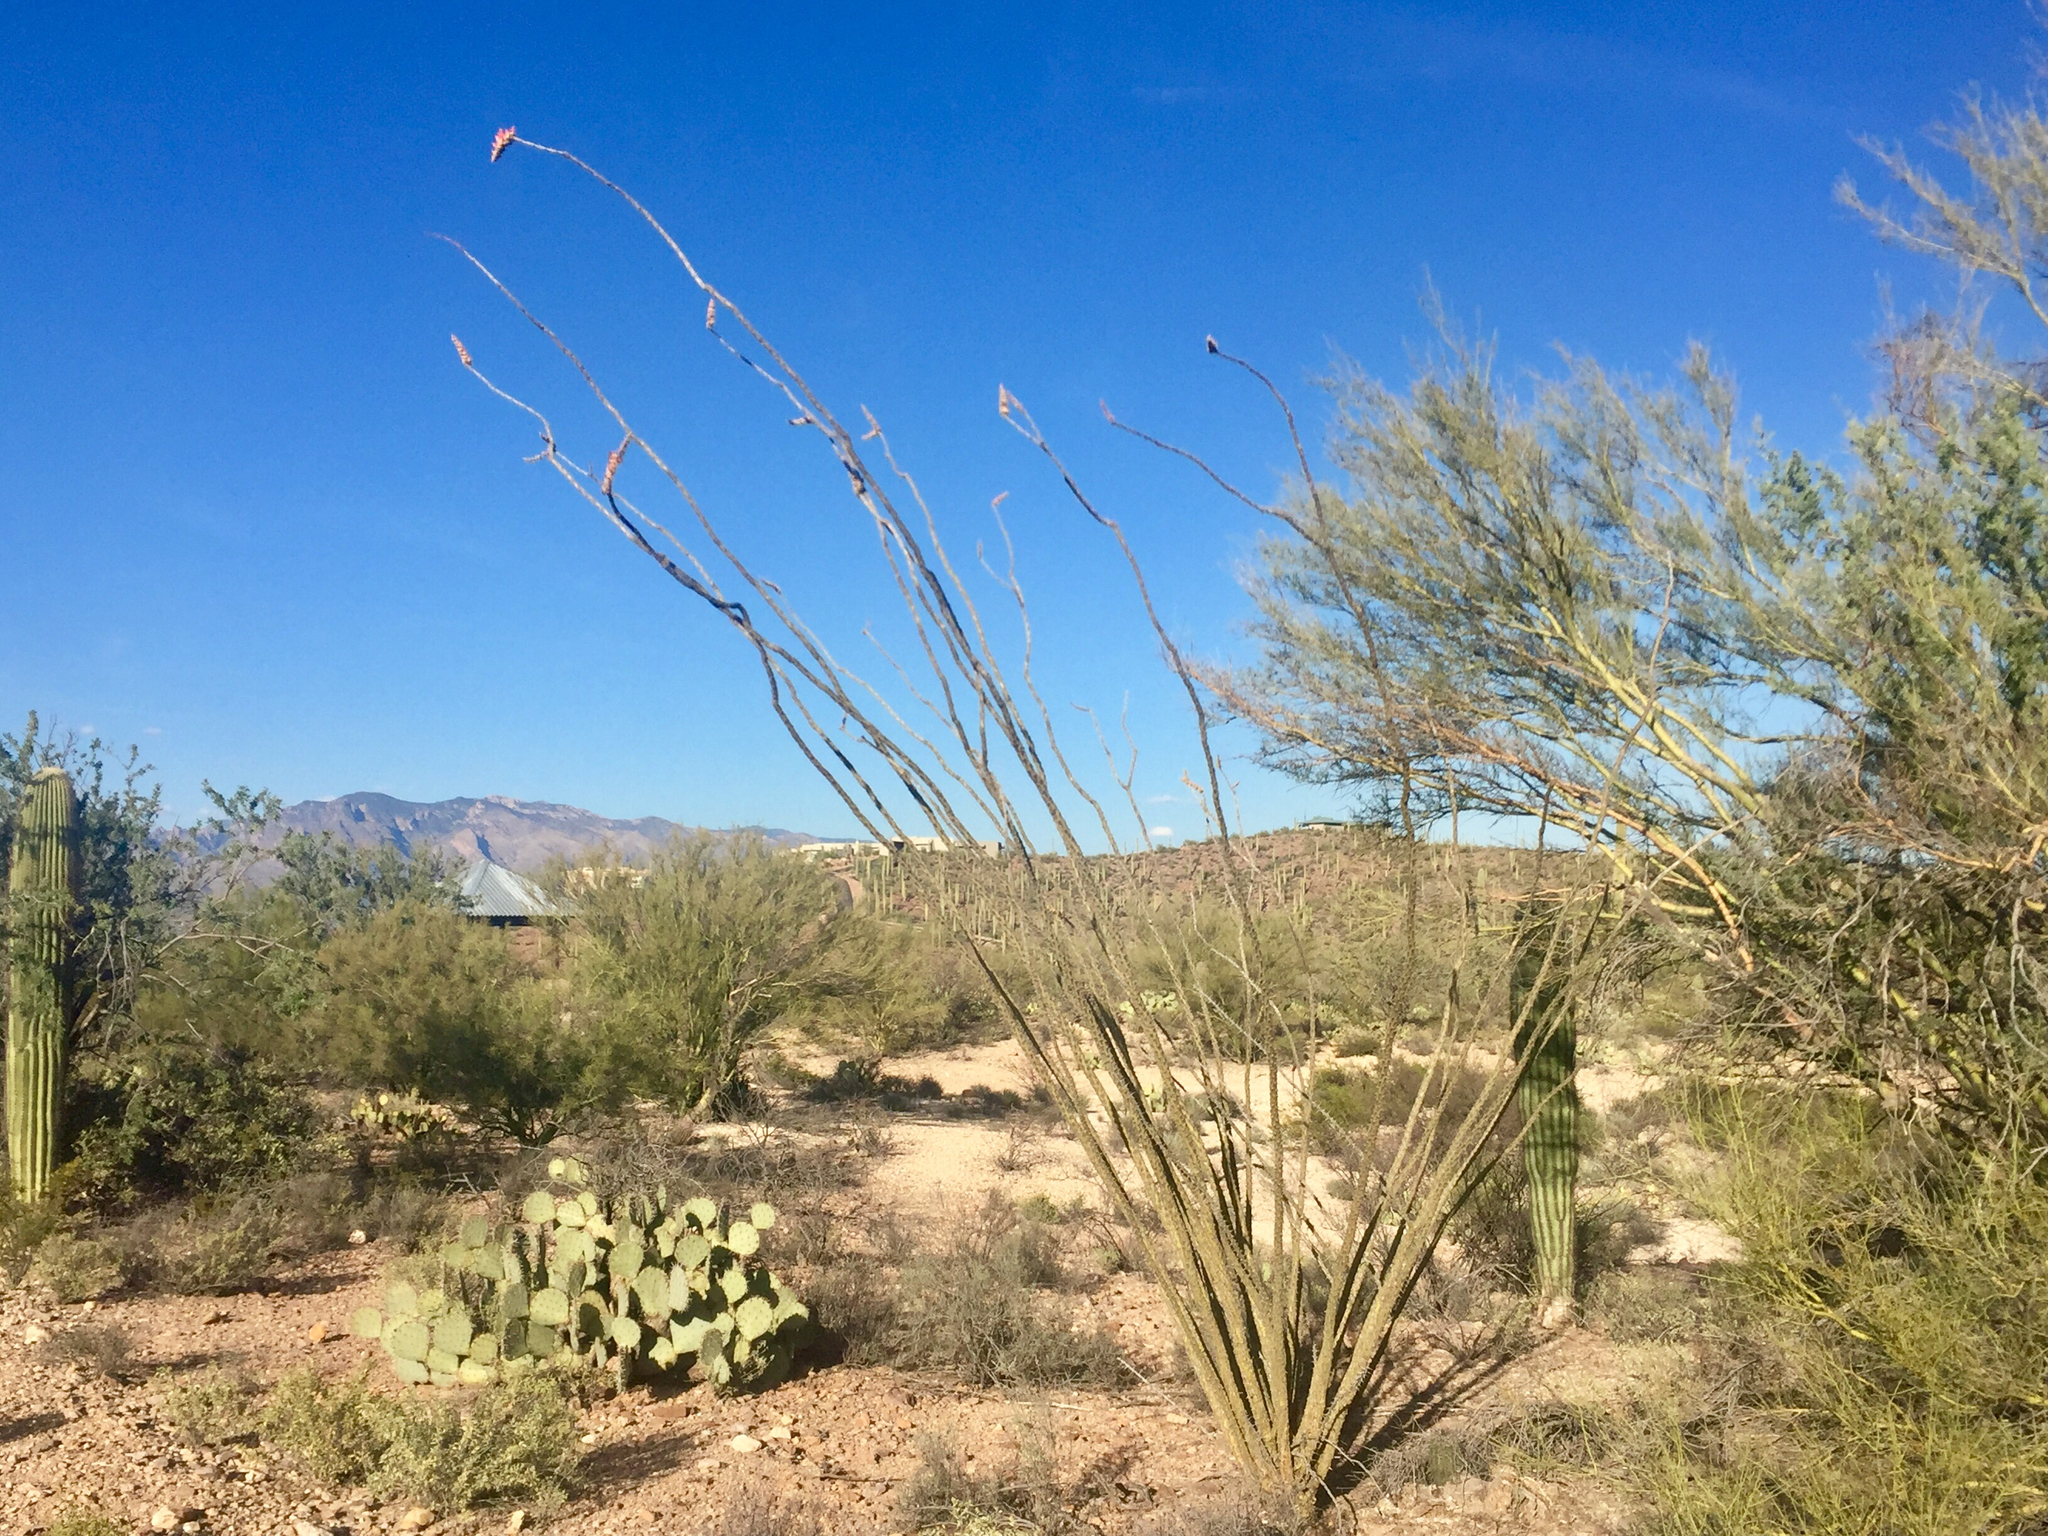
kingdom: Plantae
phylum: Tracheophyta
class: Magnoliopsida
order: Ericales
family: Fouquieriaceae
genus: Fouquieria
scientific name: Fouquieria splendens
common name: Vine-cactus
